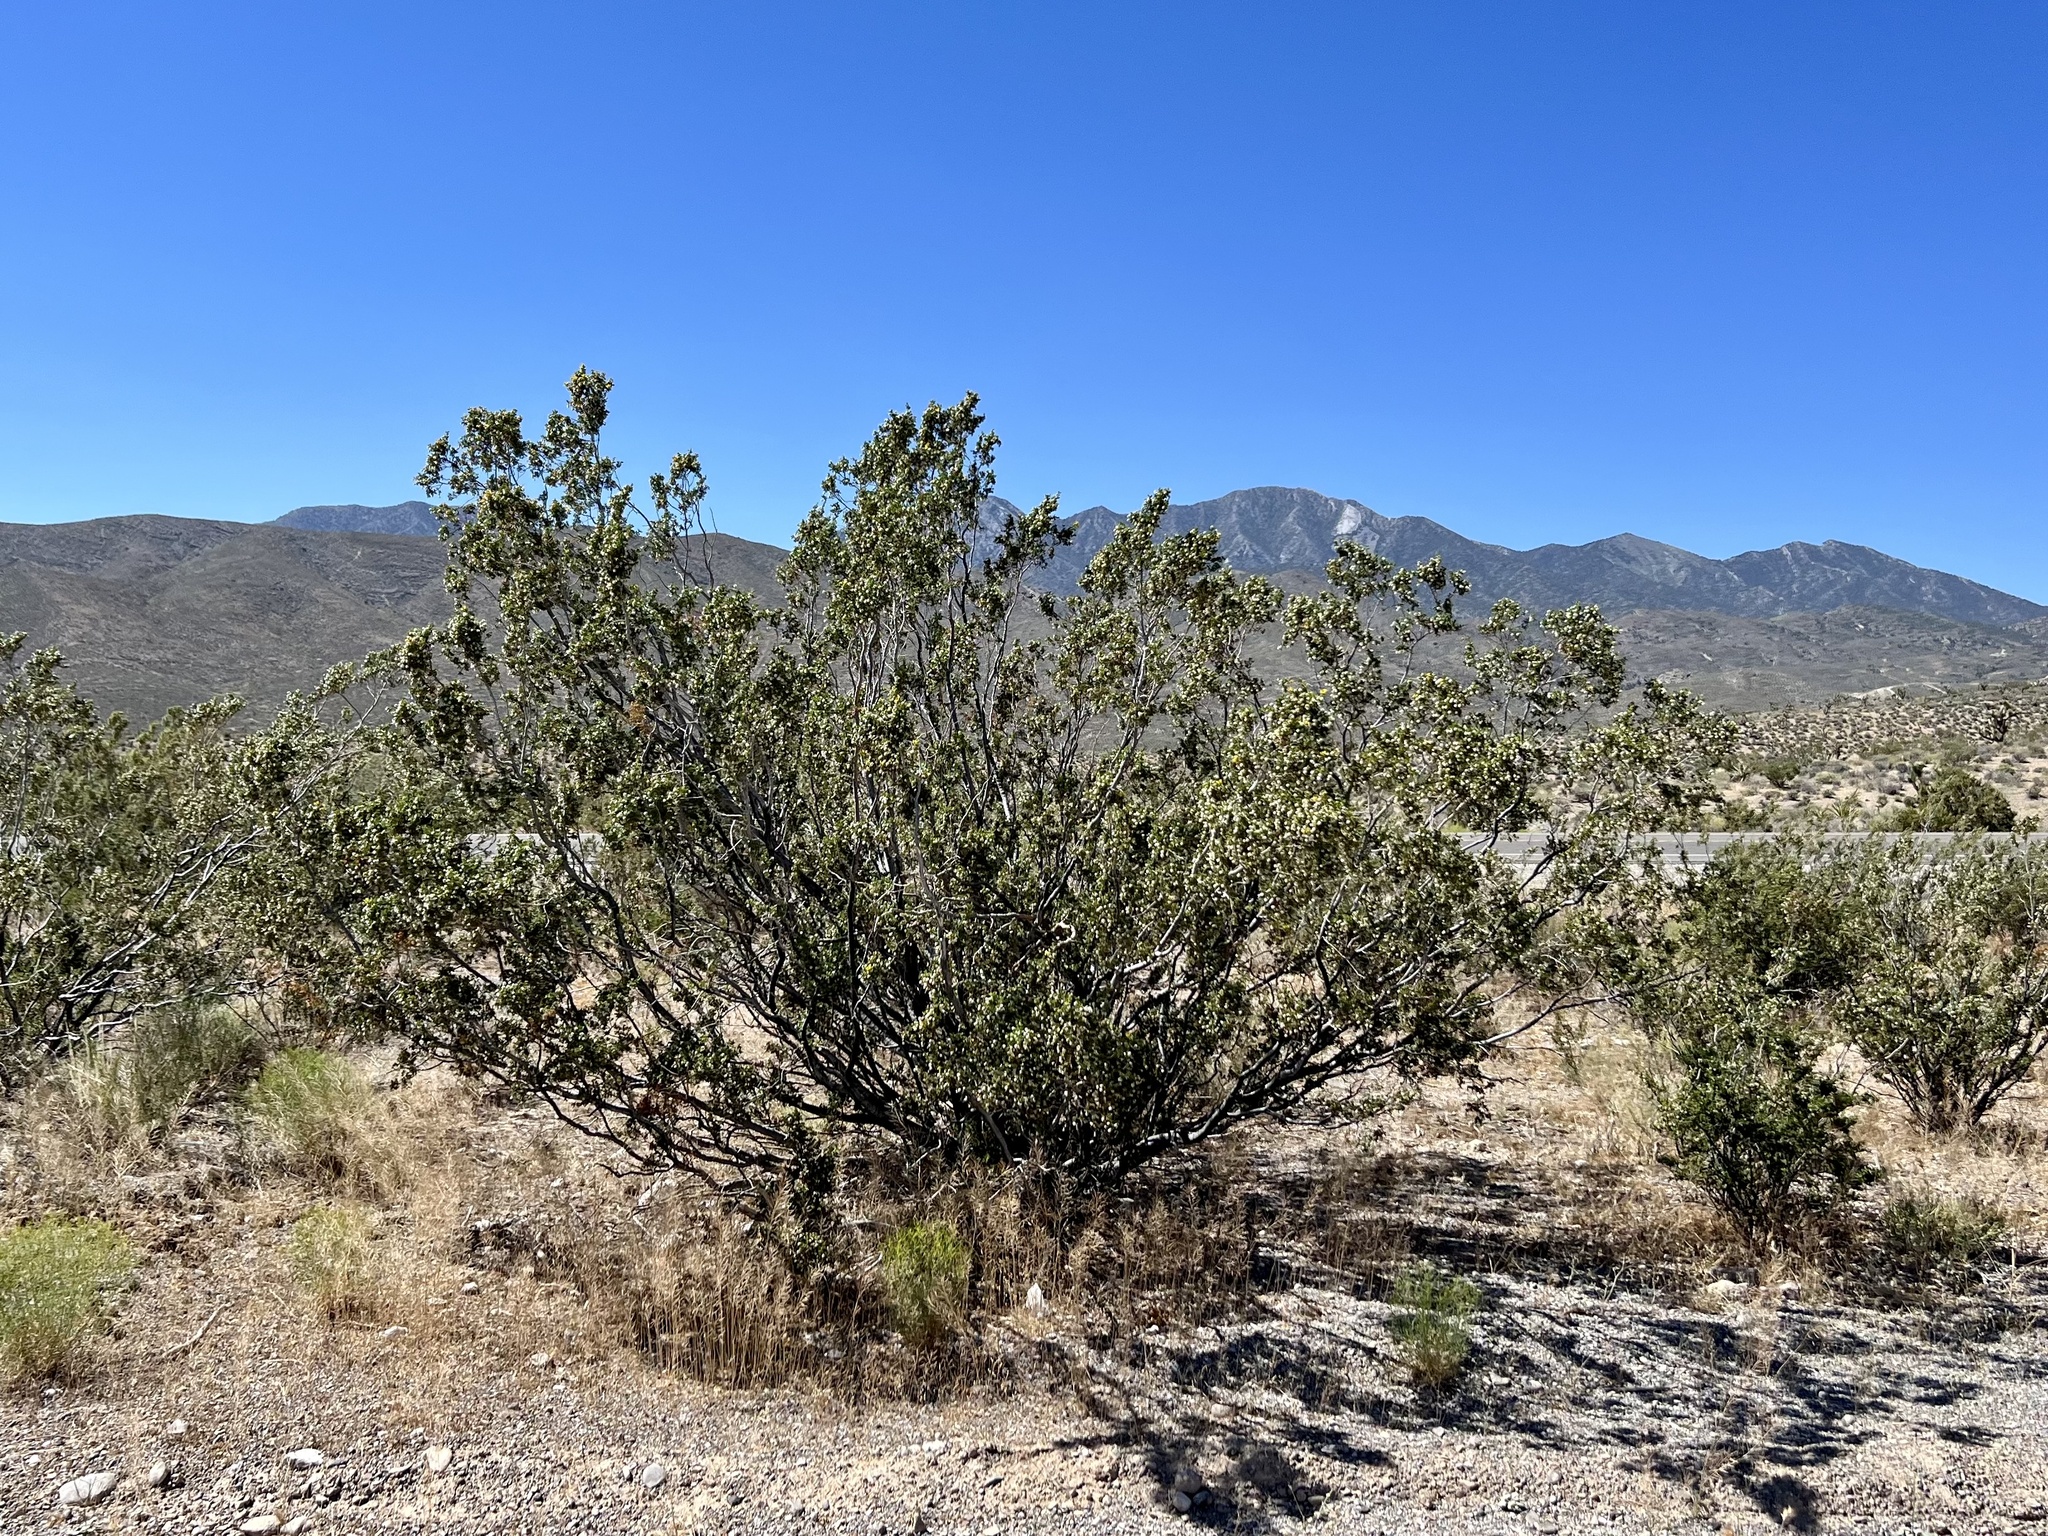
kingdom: Plantae
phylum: Tracheophyta
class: Magnoliopsida
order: Zygophyllales
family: Zygophyllaceae
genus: Larrea
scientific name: Larrea tridentata
